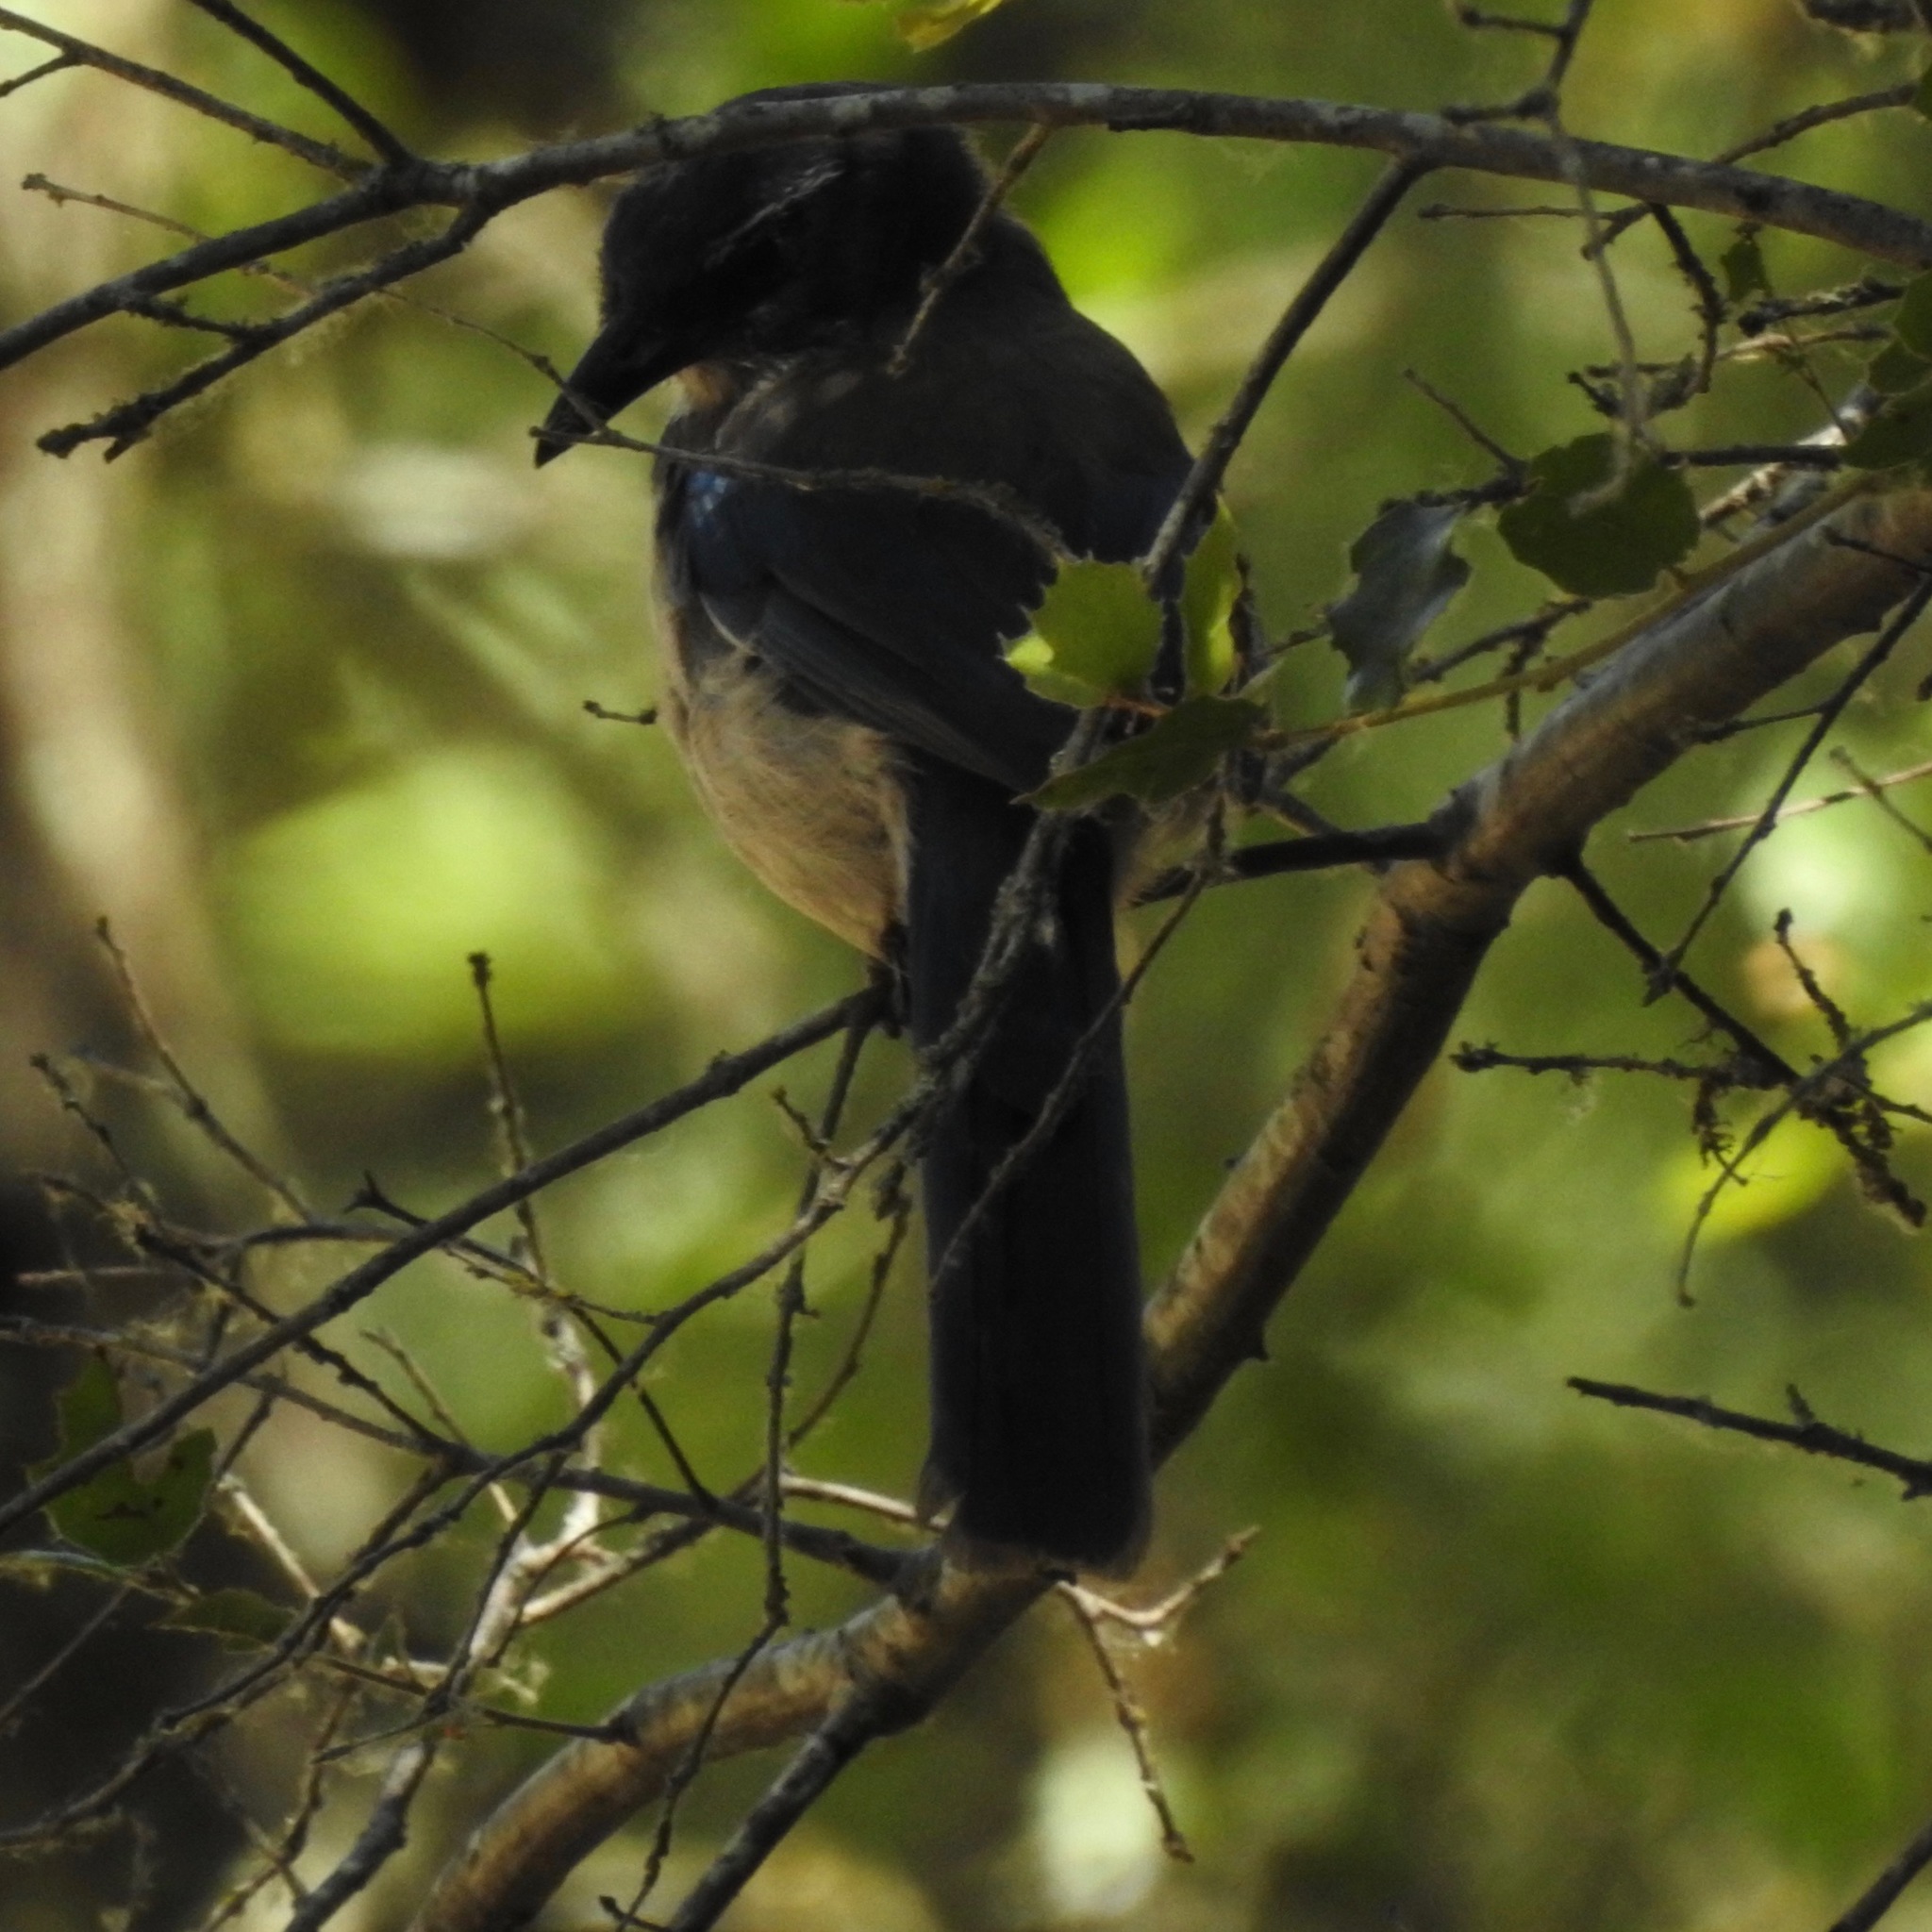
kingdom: Animalia
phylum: Chordata
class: Aves
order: Passeriformes
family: Corvidae
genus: Aphelocoma
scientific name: Aphelocoma californica
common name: California scrub-jay
